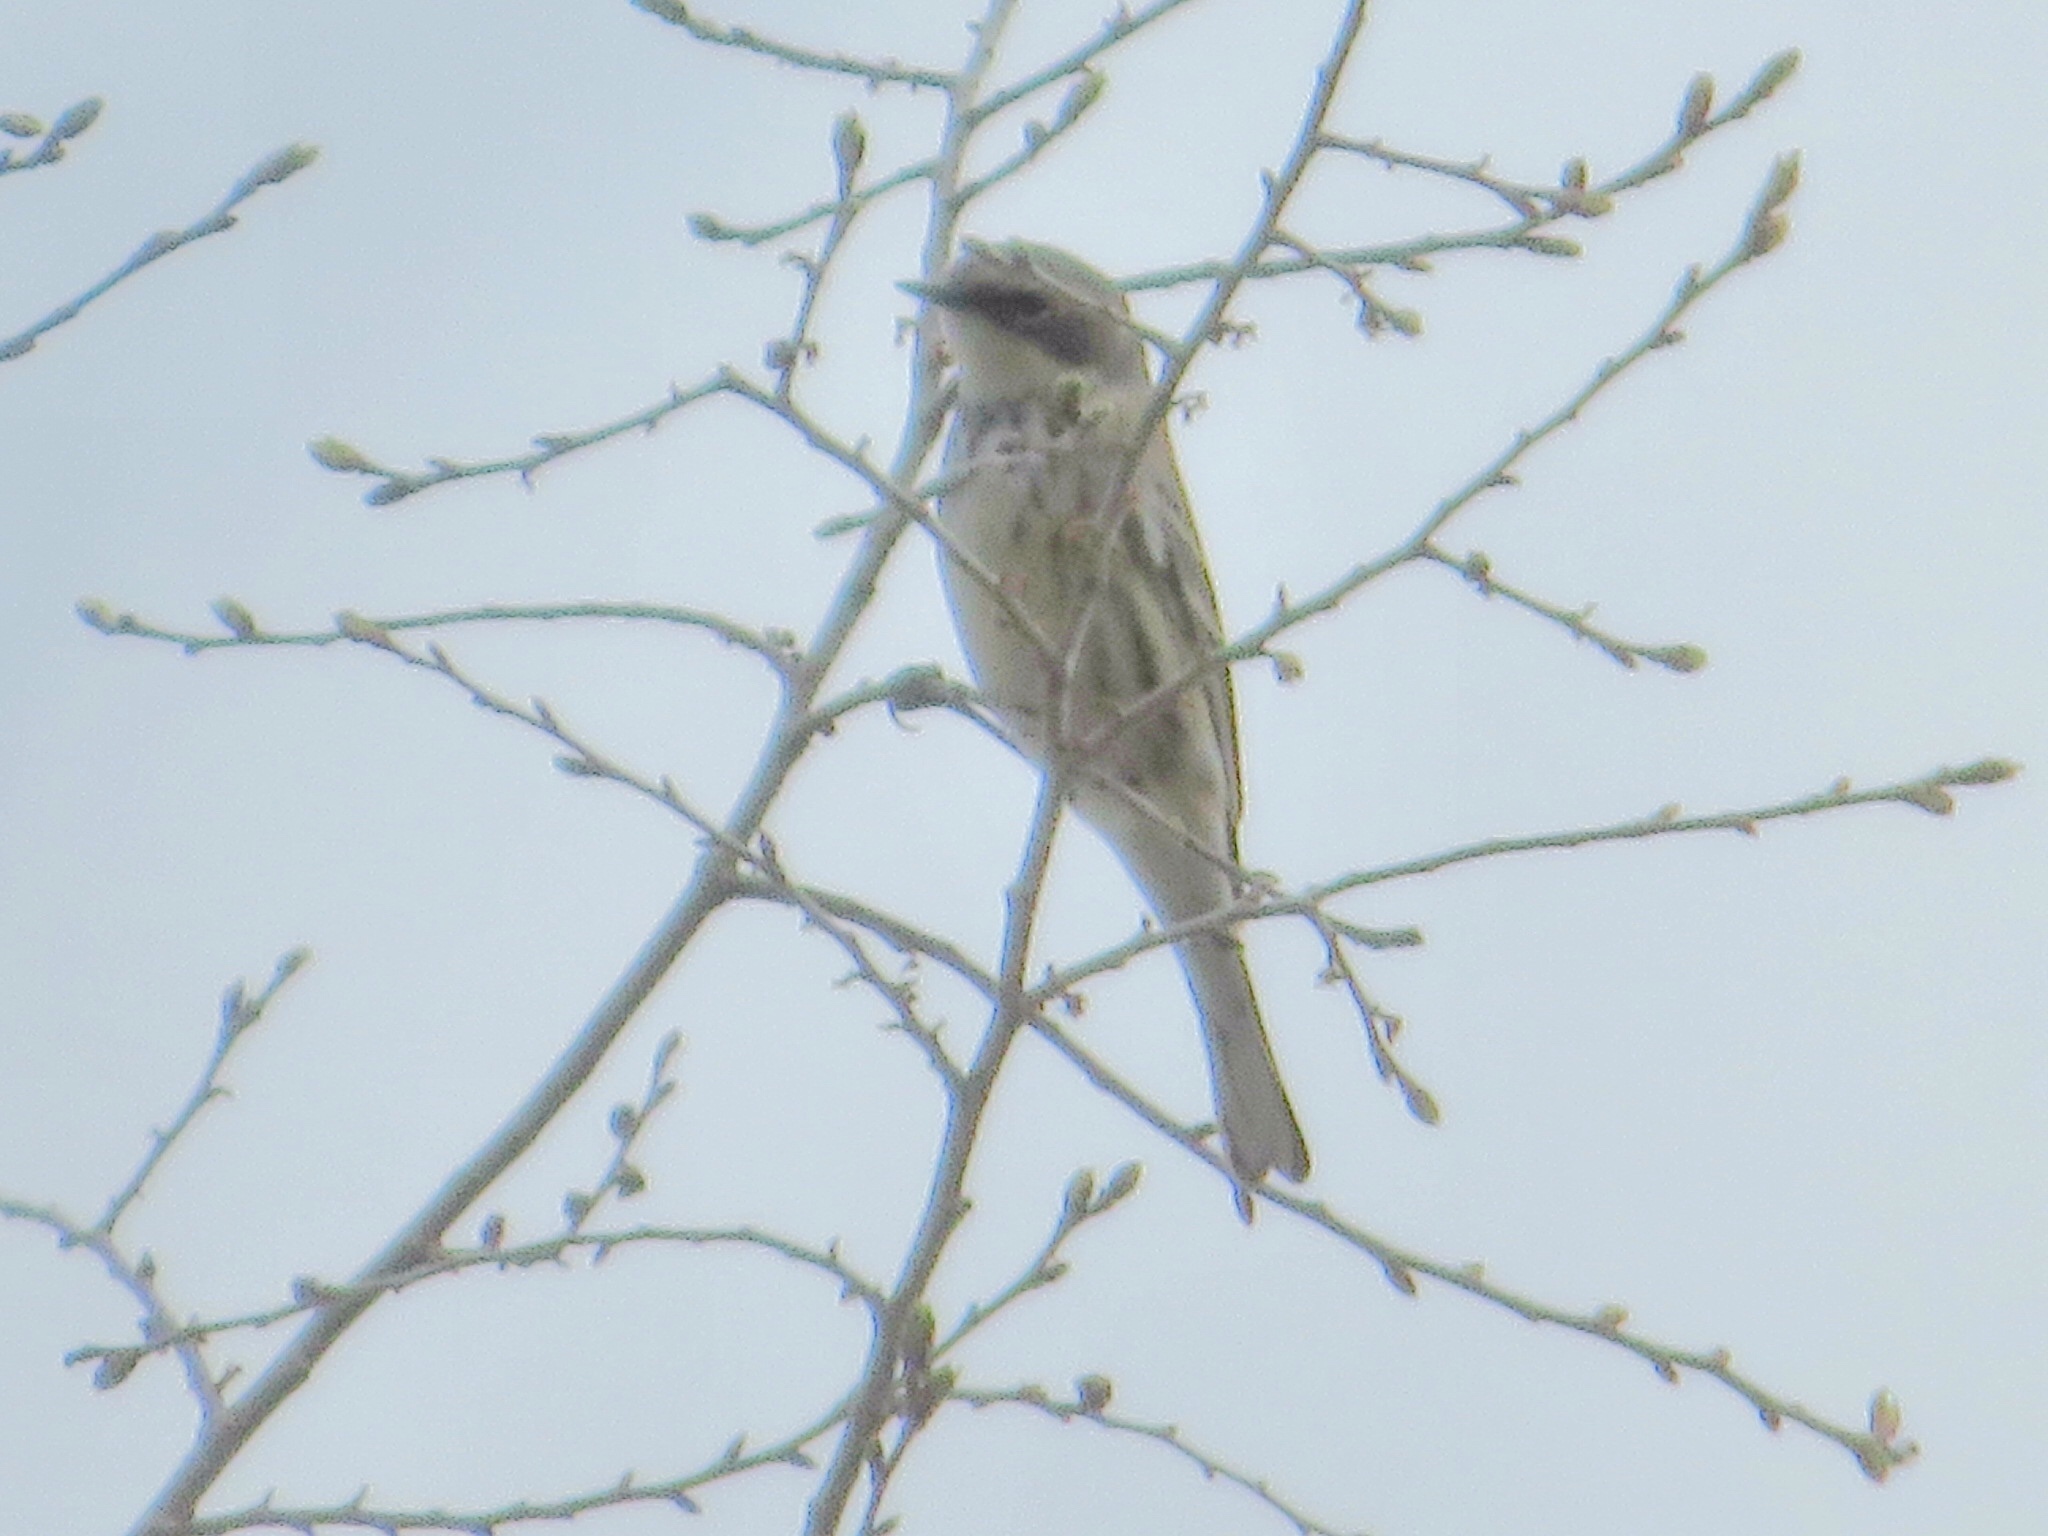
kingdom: Animalia
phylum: Chordata
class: Aves
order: Passeriformes
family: Parulidae
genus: Setophaga
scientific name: Setophaga coronata
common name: Myrtle warbler
